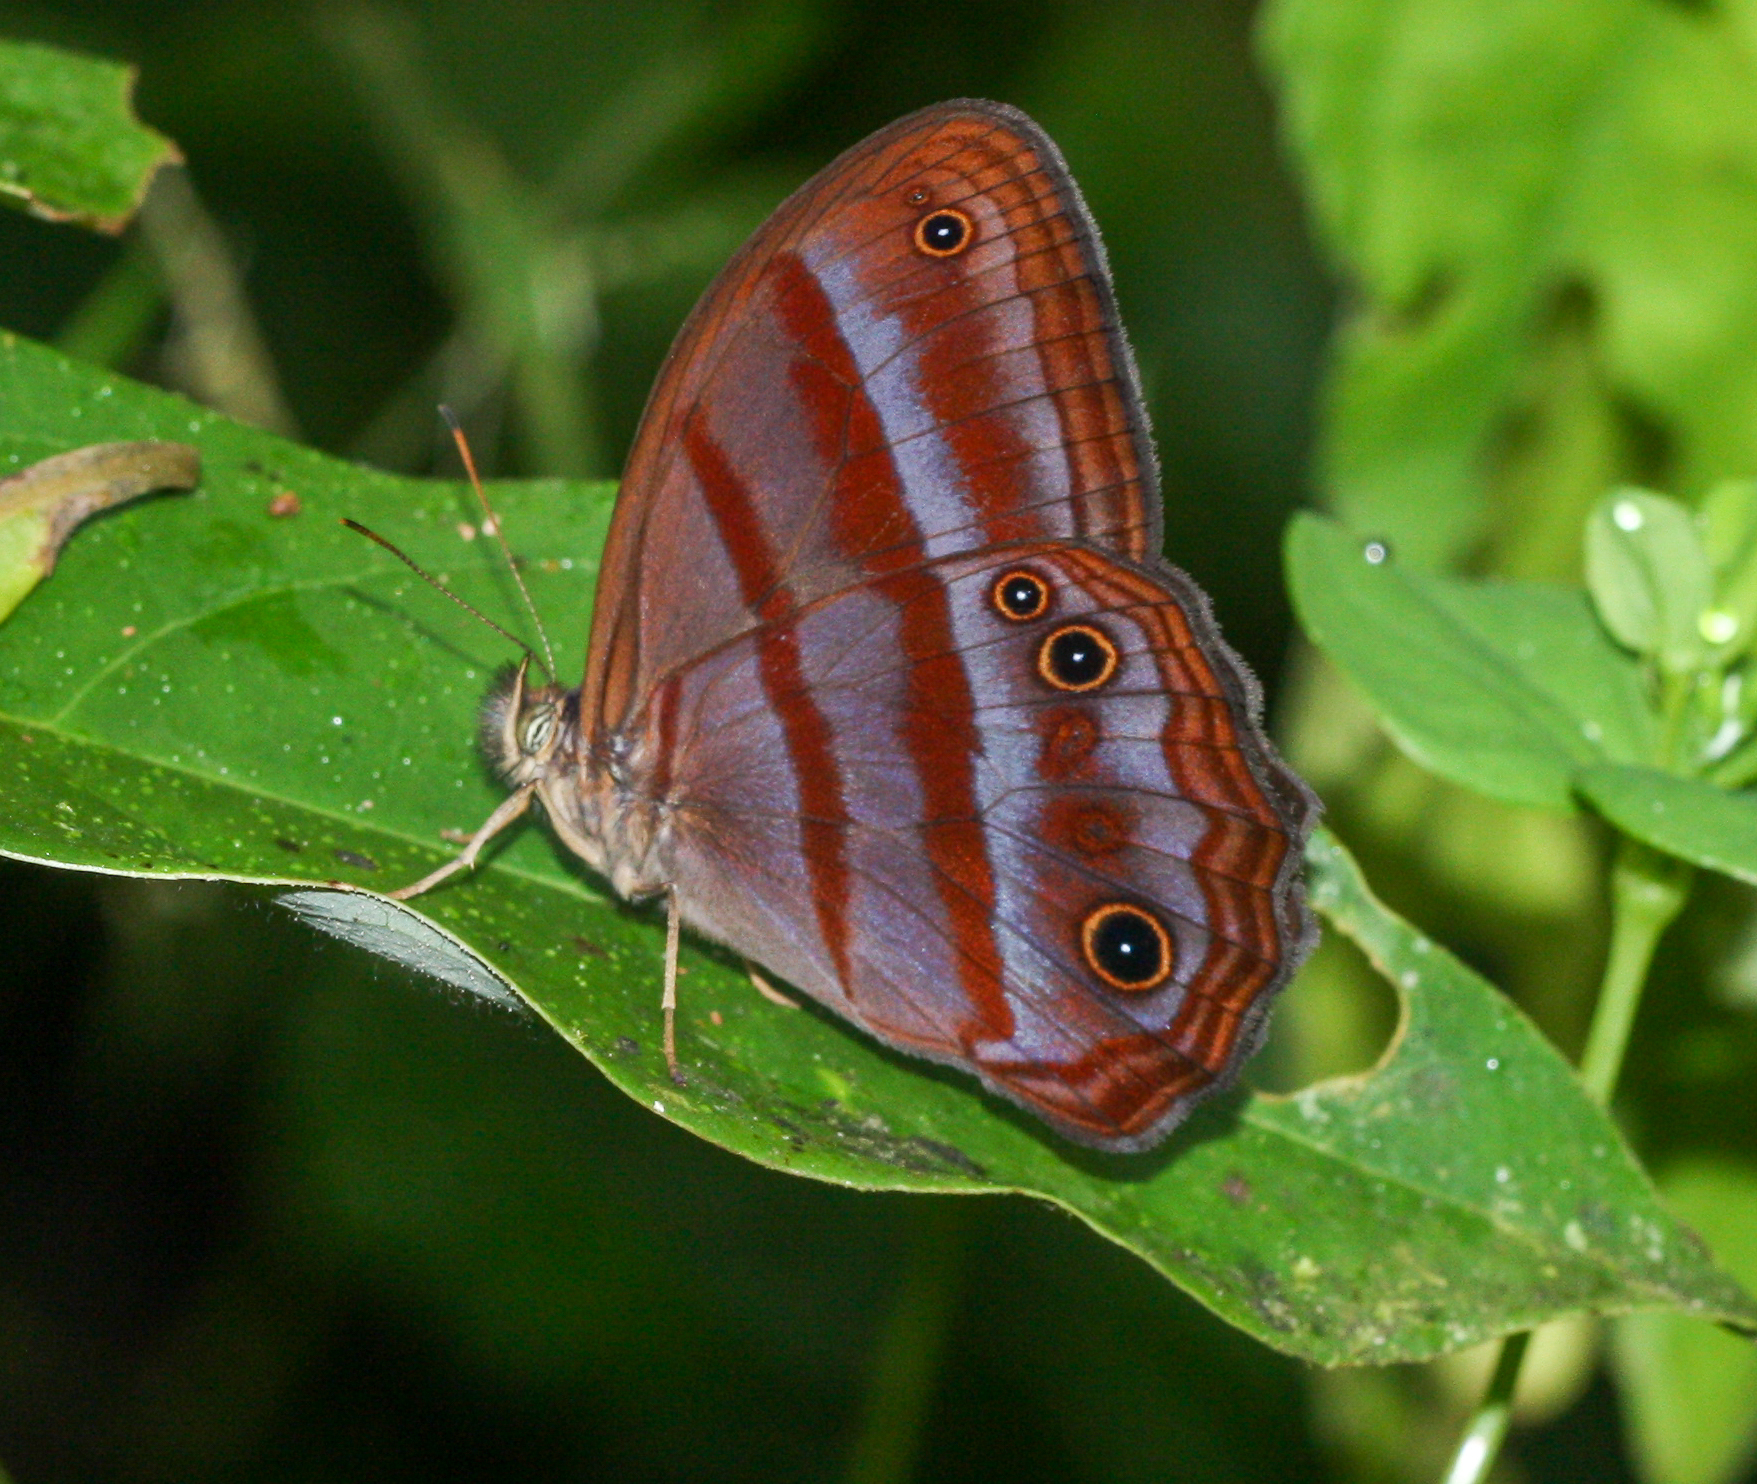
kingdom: Animalia
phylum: Arthropoda
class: Insecta
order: Lepidoptera
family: Nymphalidae
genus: Satyrotaygetis
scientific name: Satyrotaygetis
